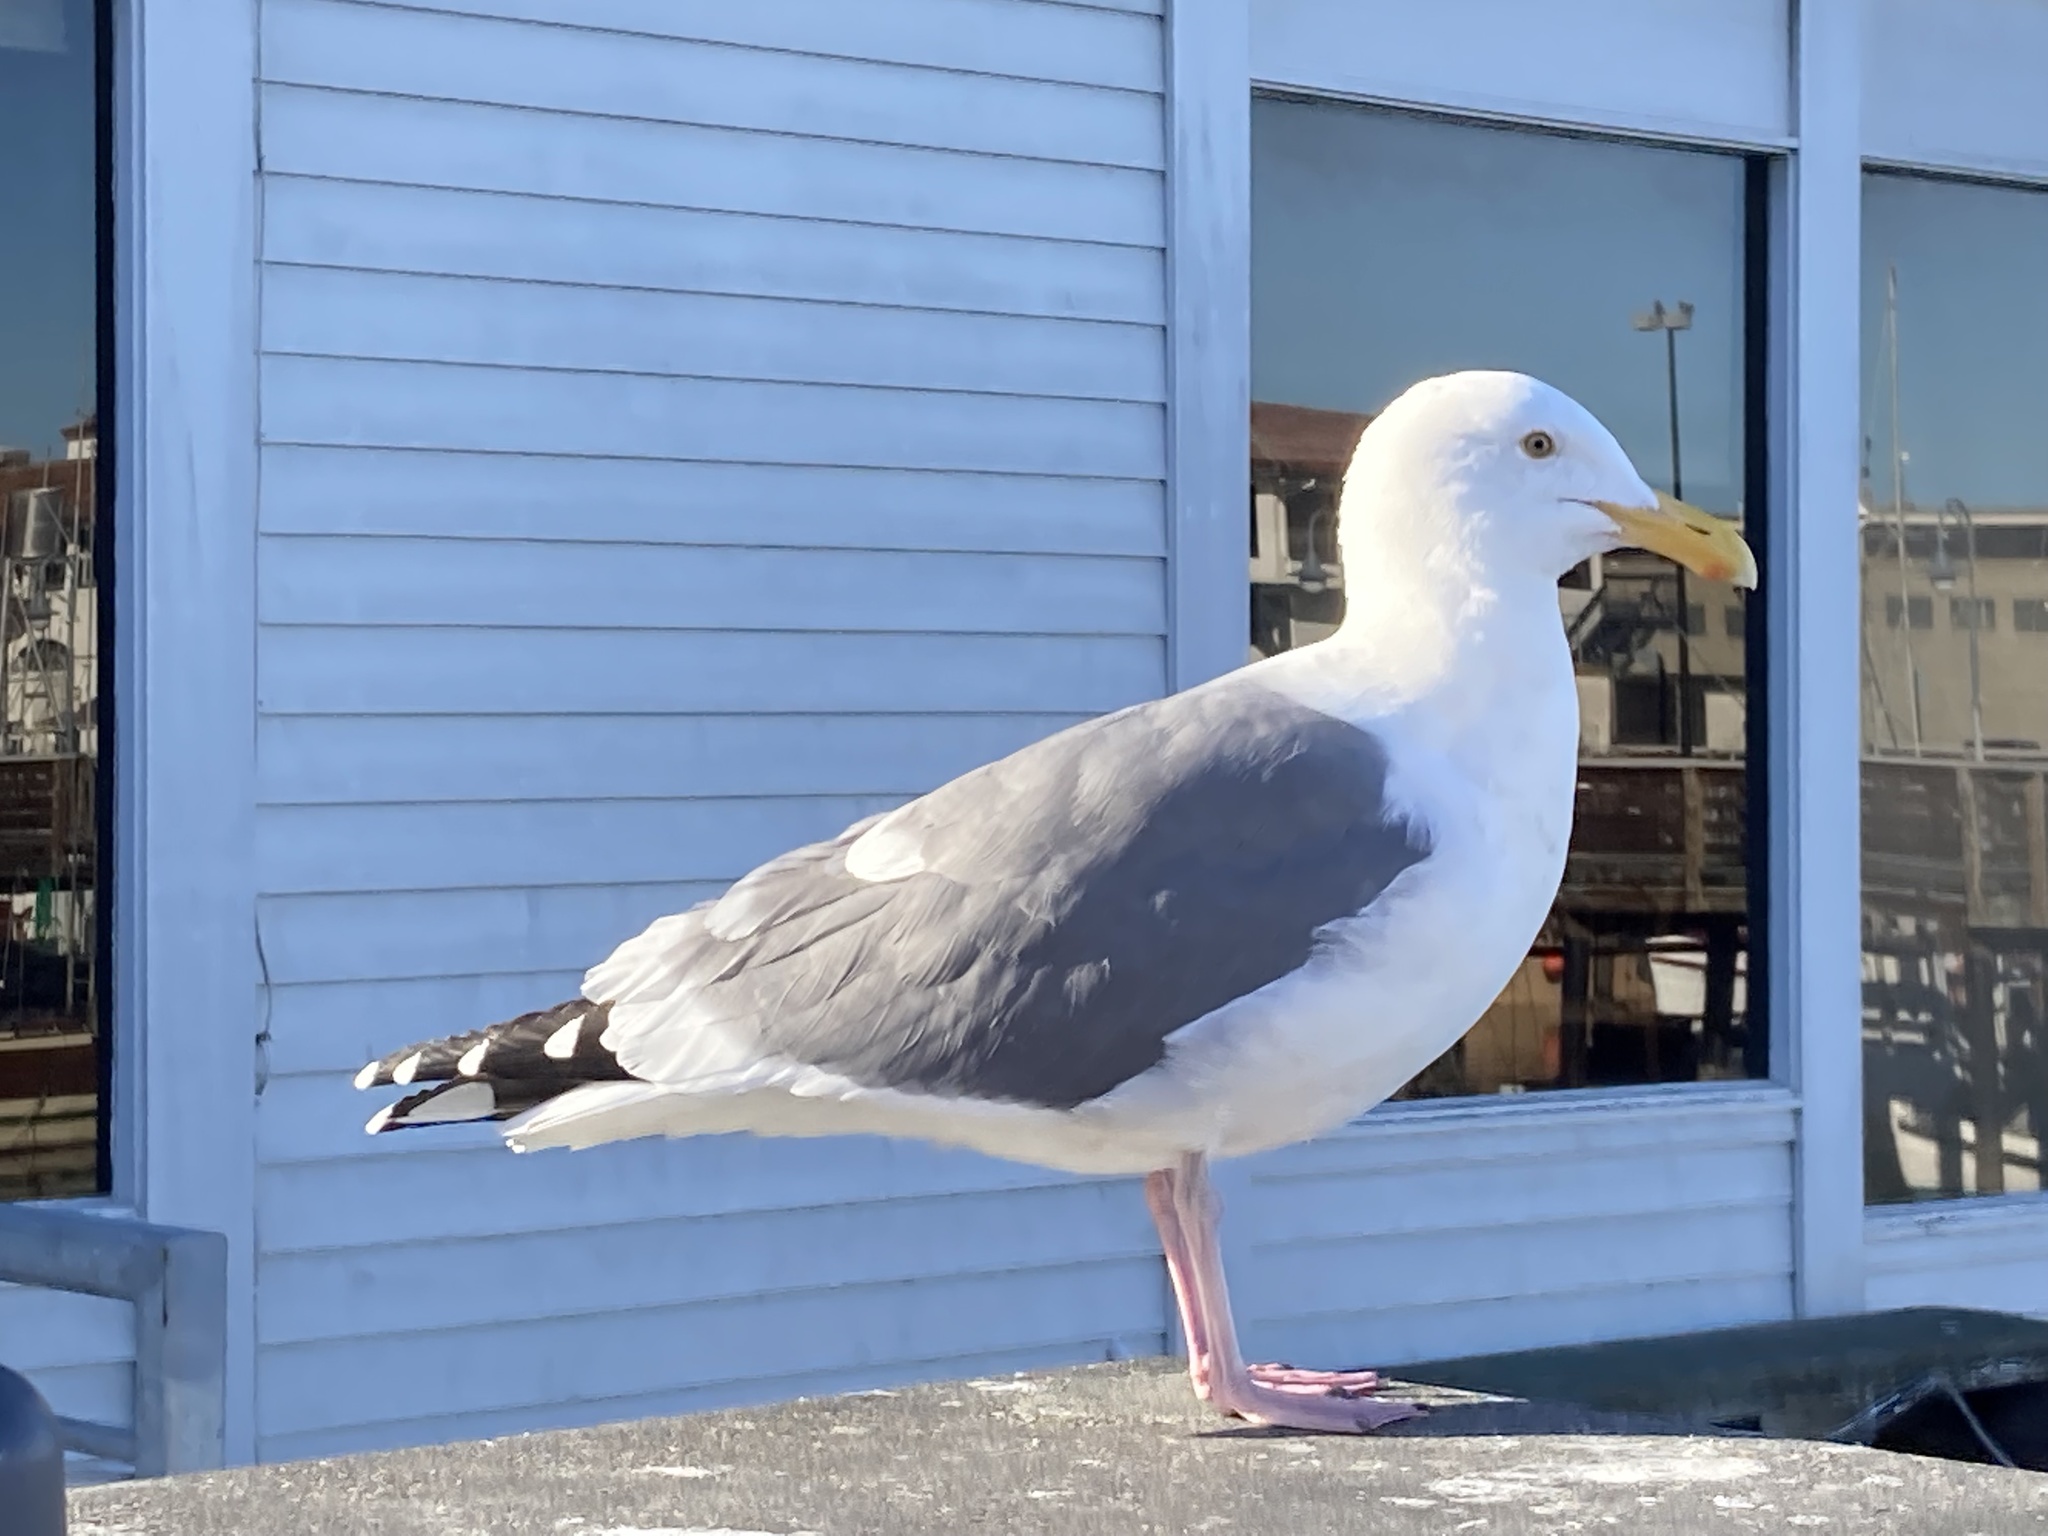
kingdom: Animalia
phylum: Chordata
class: Aves
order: Charadriiformes
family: Laridae
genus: Larus
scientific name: Larus occidentalis
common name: Western gull
